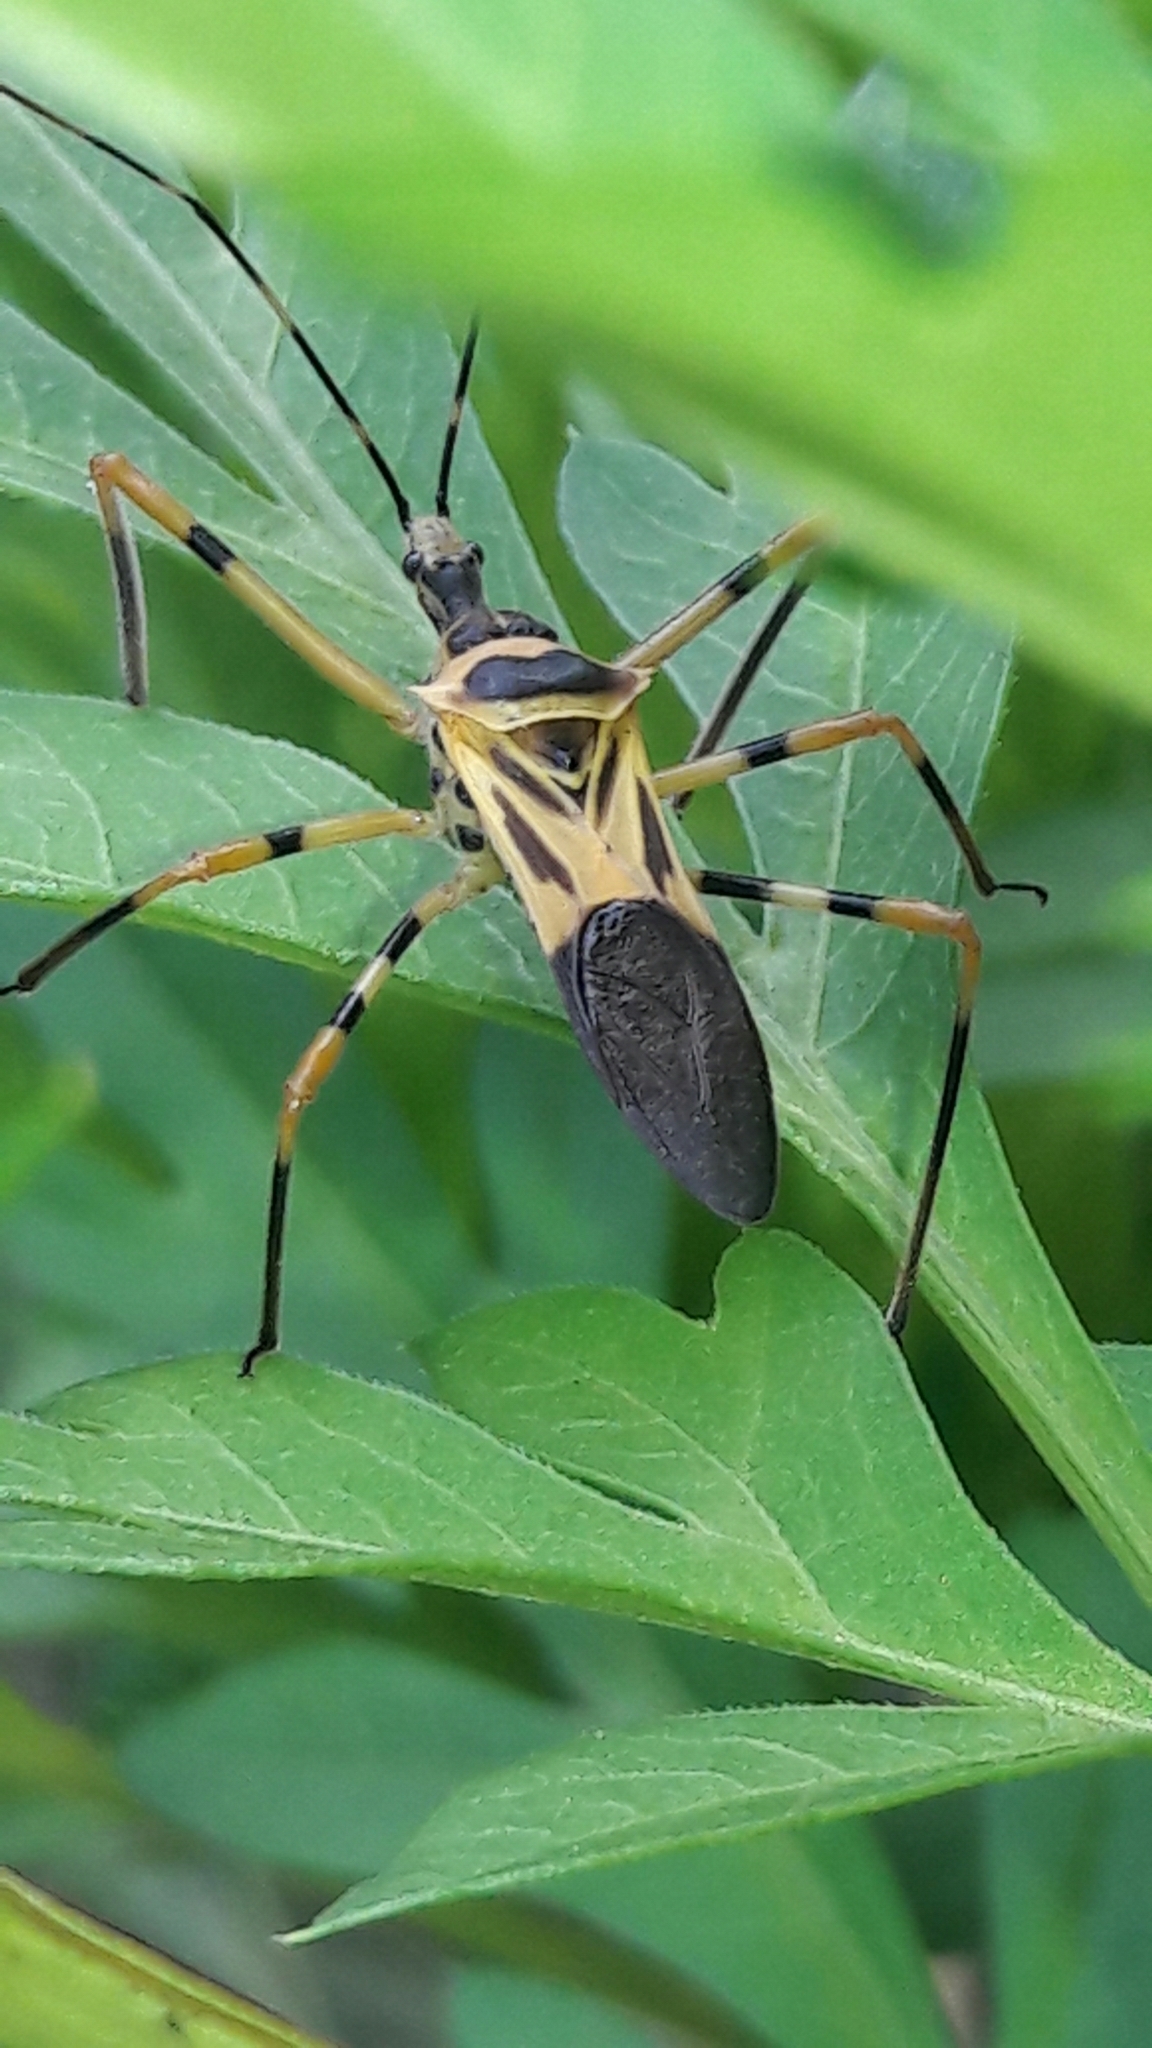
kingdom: Animalia
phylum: Arthropoda
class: Insecta
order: Hemiptera
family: Reduviidae
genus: Zelus
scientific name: Zelus armillatus
